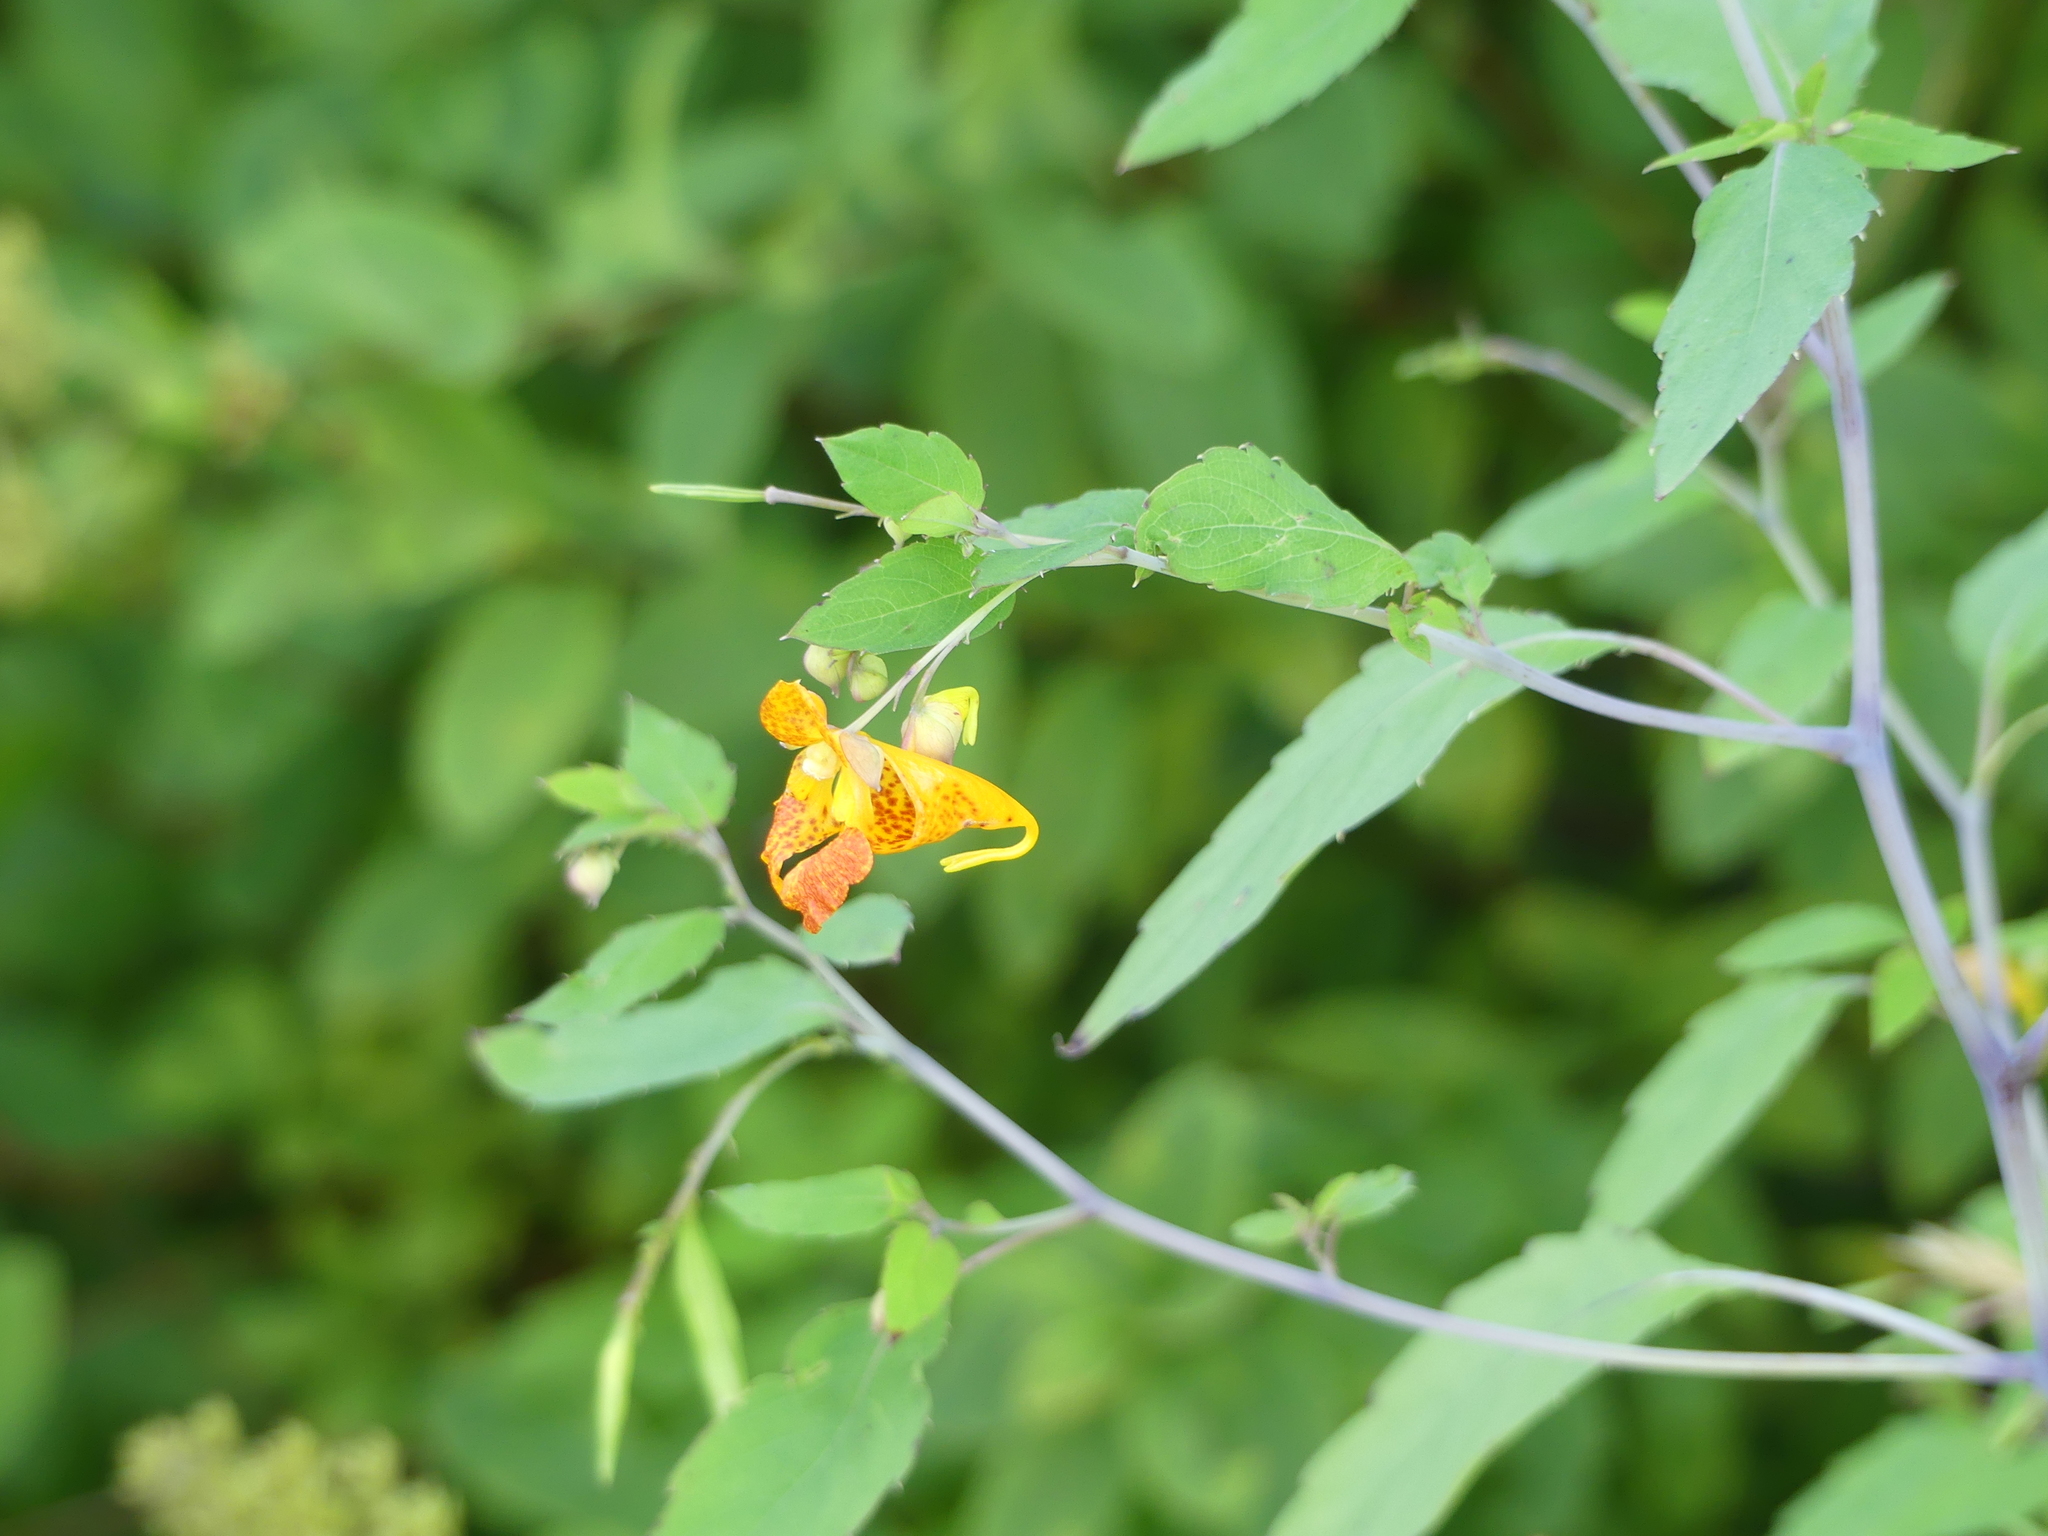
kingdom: Plantae
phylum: Tracheophyta
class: Magnoliopsida
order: Ericales
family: Balsaminaceae
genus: Impatiens
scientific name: Impatiens capensis
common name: Orange balsam
